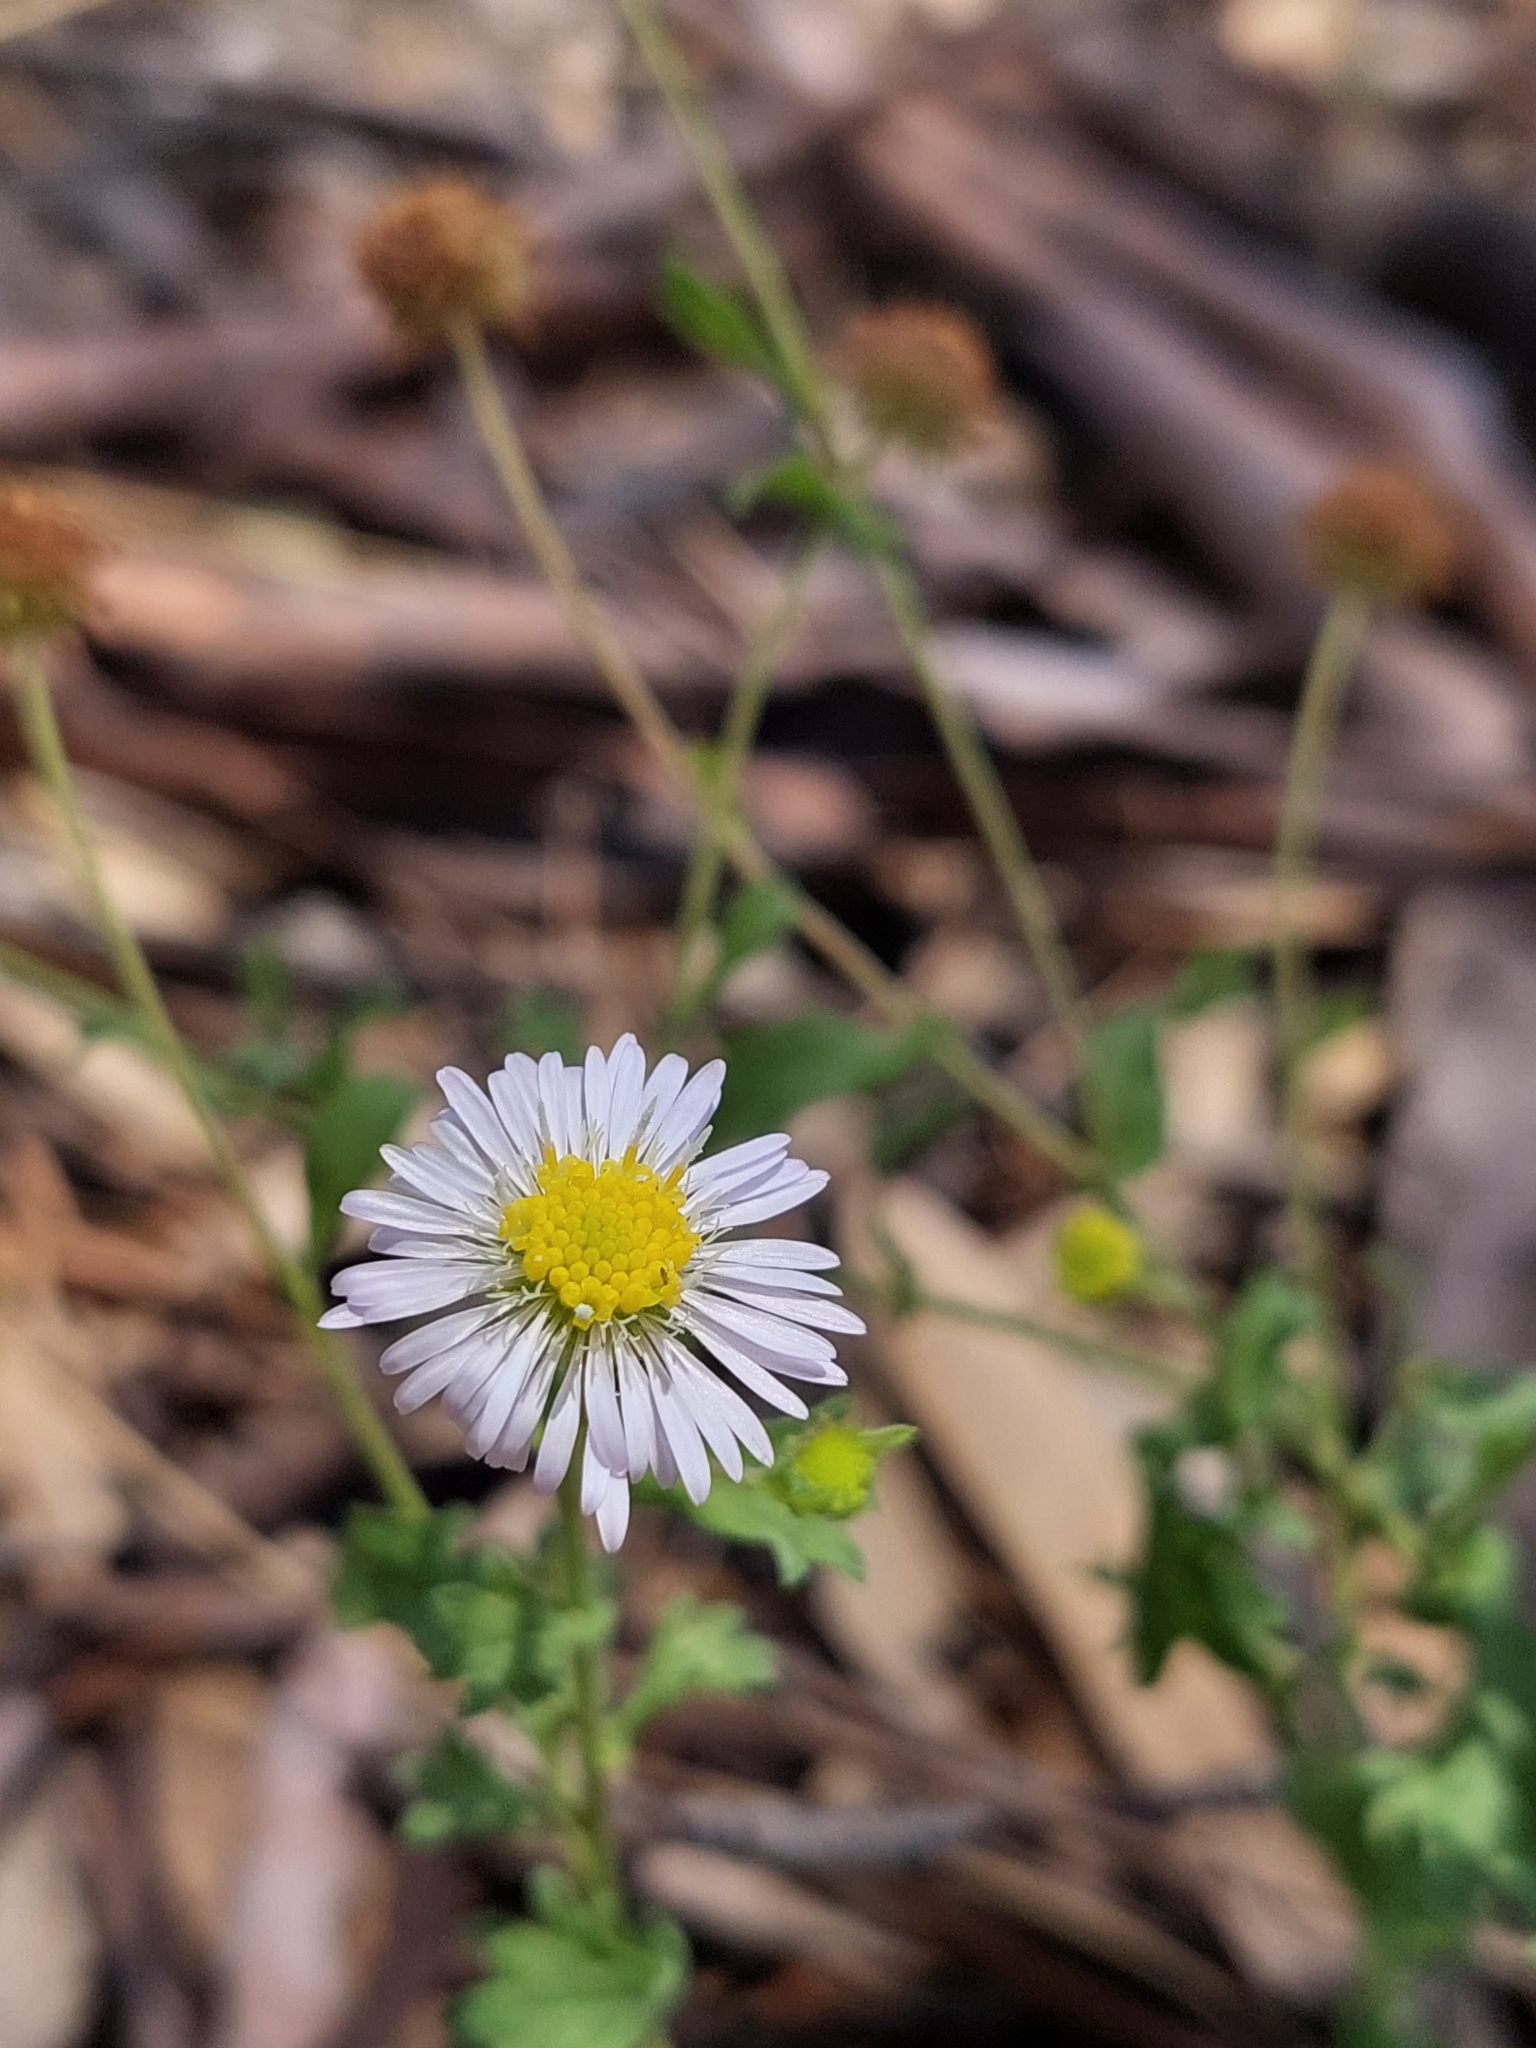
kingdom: Plantae
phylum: Tracheophyta
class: Magnoliopsida
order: Asterales
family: Asteraceae
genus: Calotis
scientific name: Calotis cuneifolia
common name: Bur-daisy
